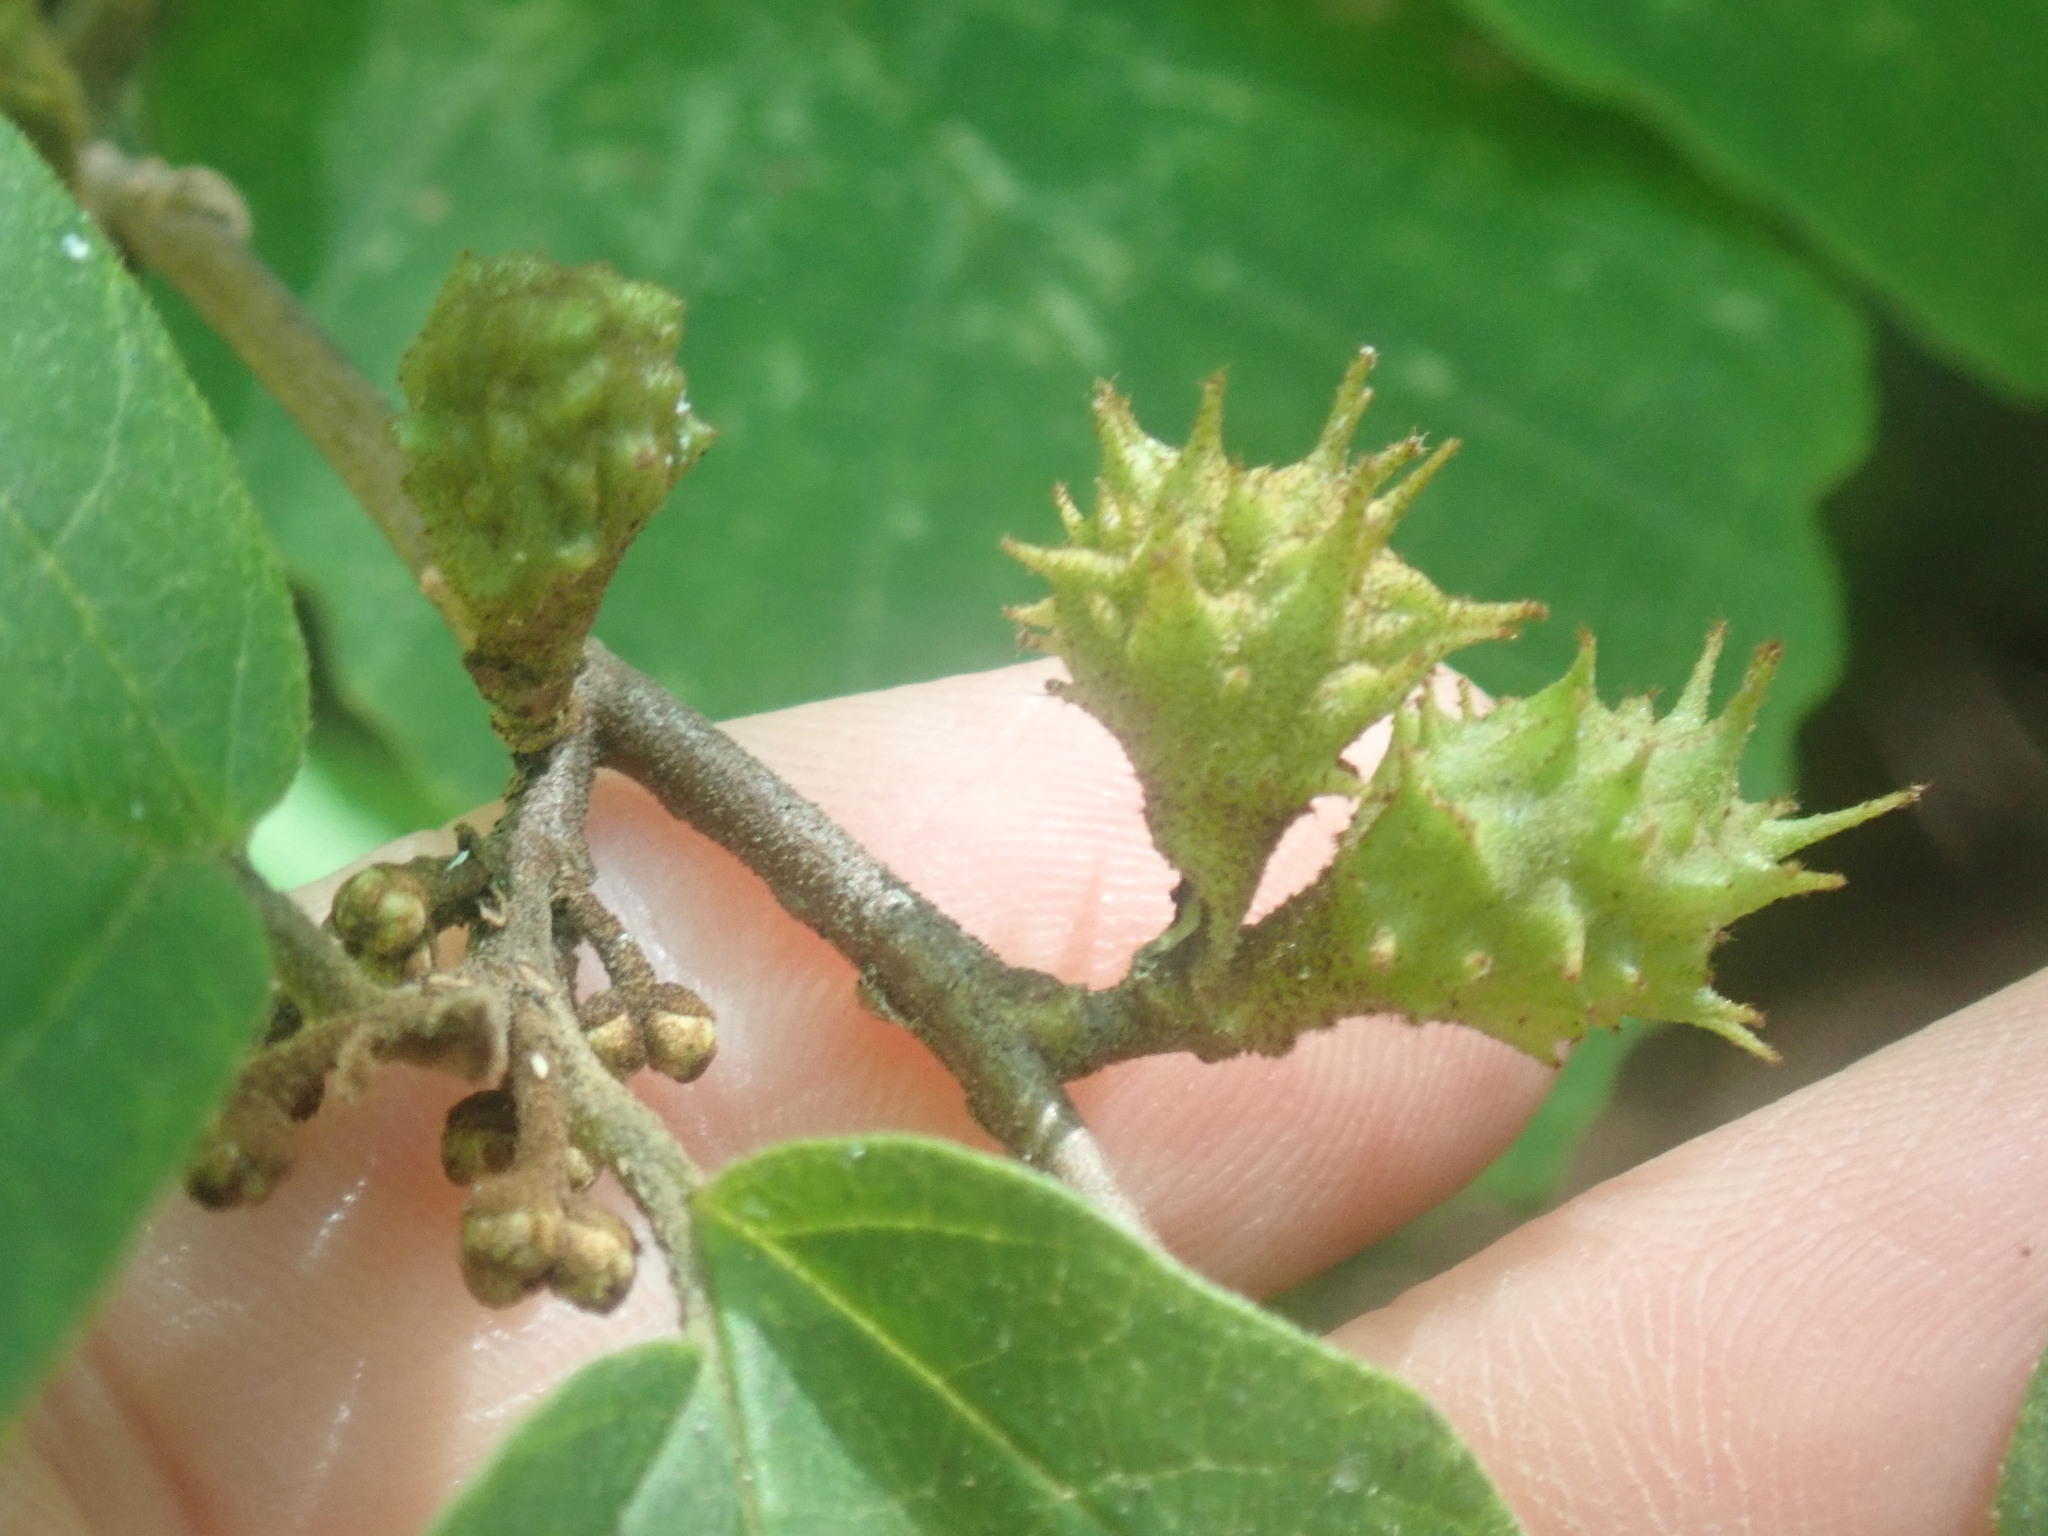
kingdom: Animalia
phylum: Arthropoda
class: Insecta
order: Hemiptera
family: Aphididae
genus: Hamamelistes
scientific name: Hamamelistes spinosus
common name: Witch hazel gall aphid
